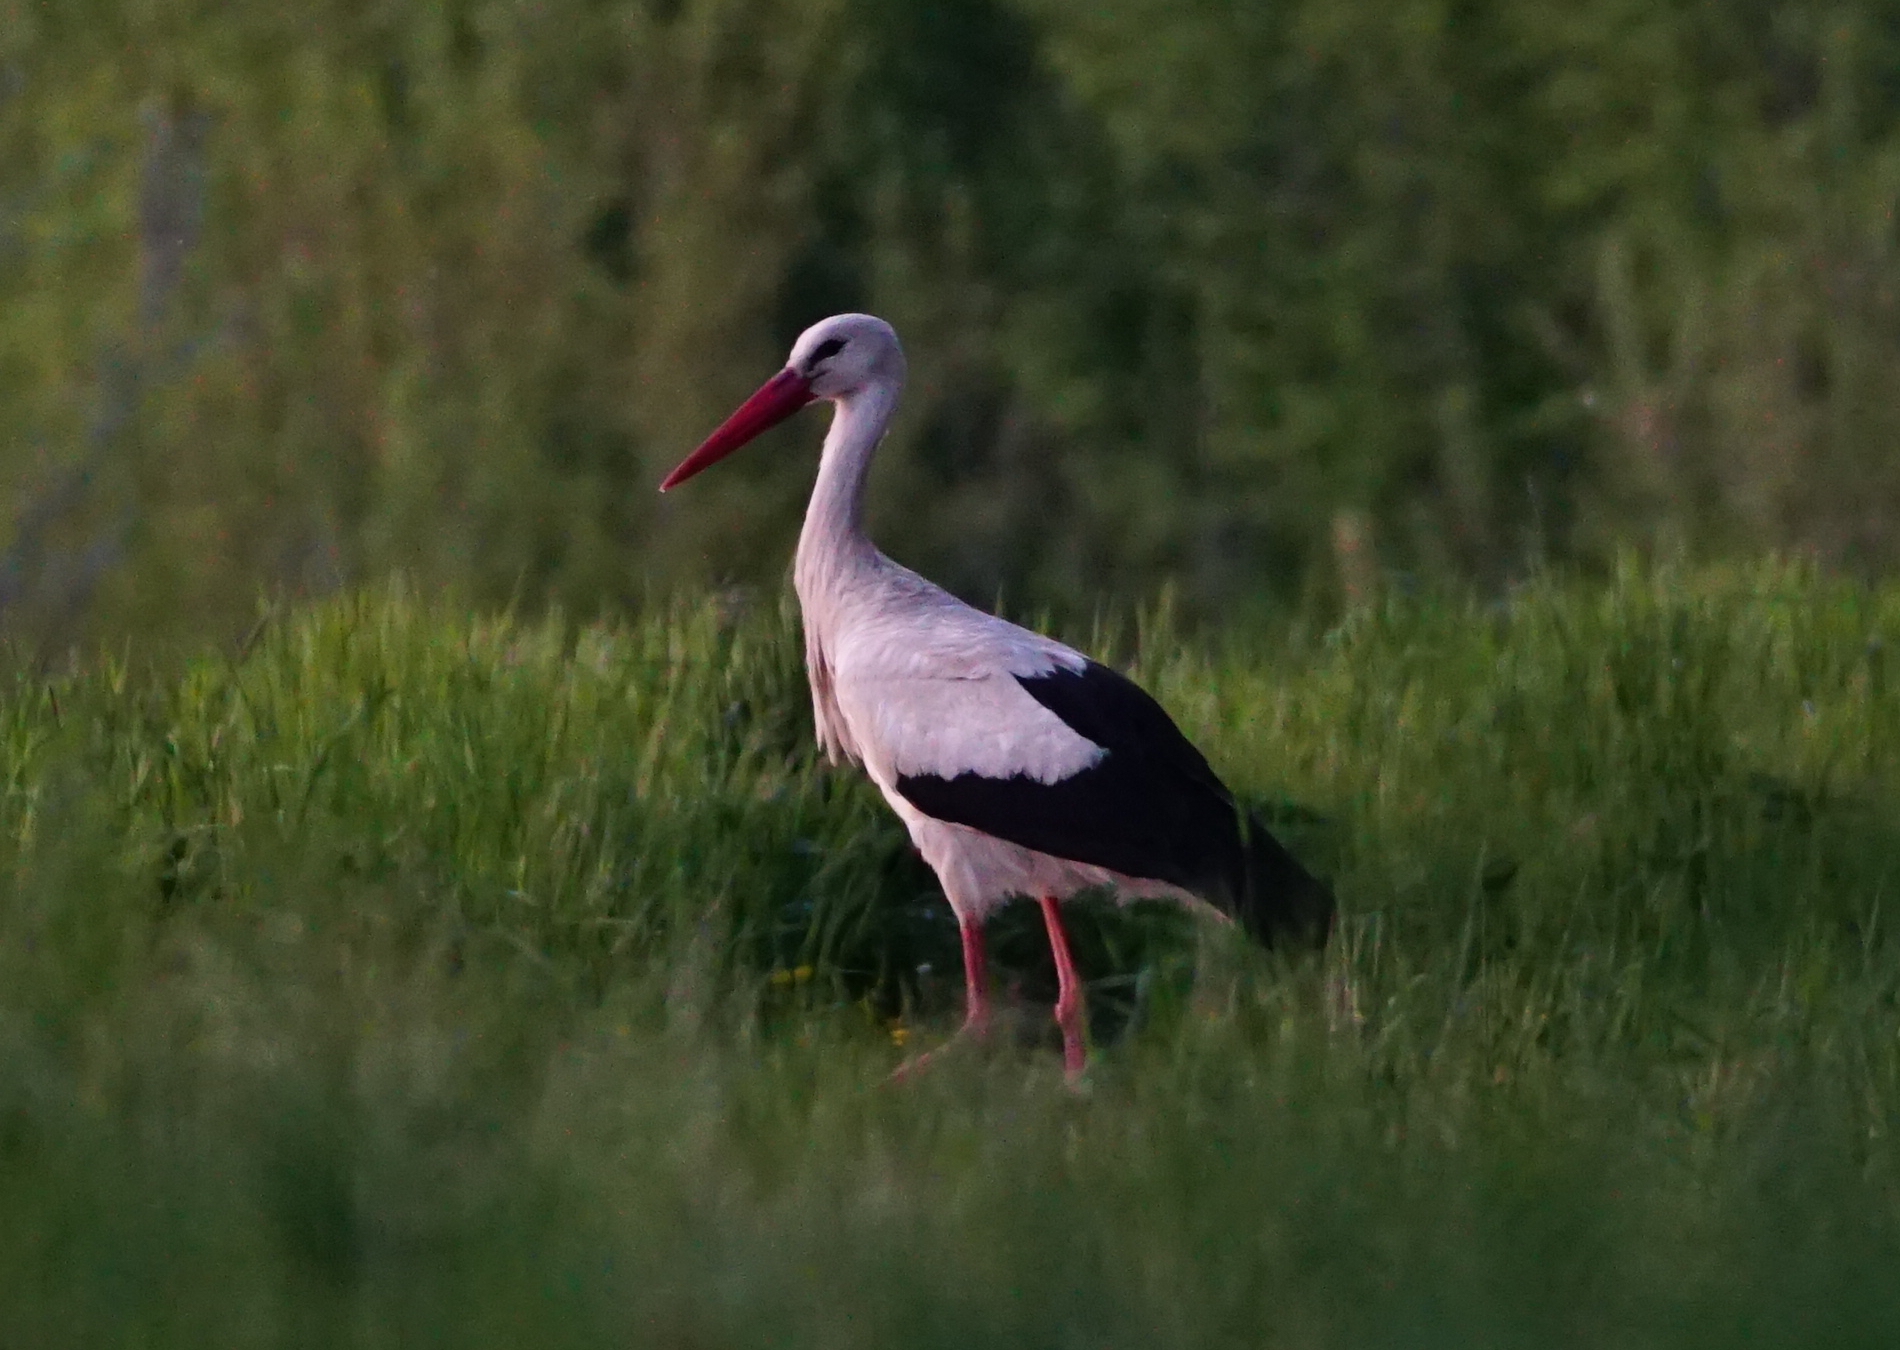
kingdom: Animalia
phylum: Chordata
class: Aves
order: Ciconiiformes
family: Ciconiidae
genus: Ciconia
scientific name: Ciconia ciconia
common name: White stork
